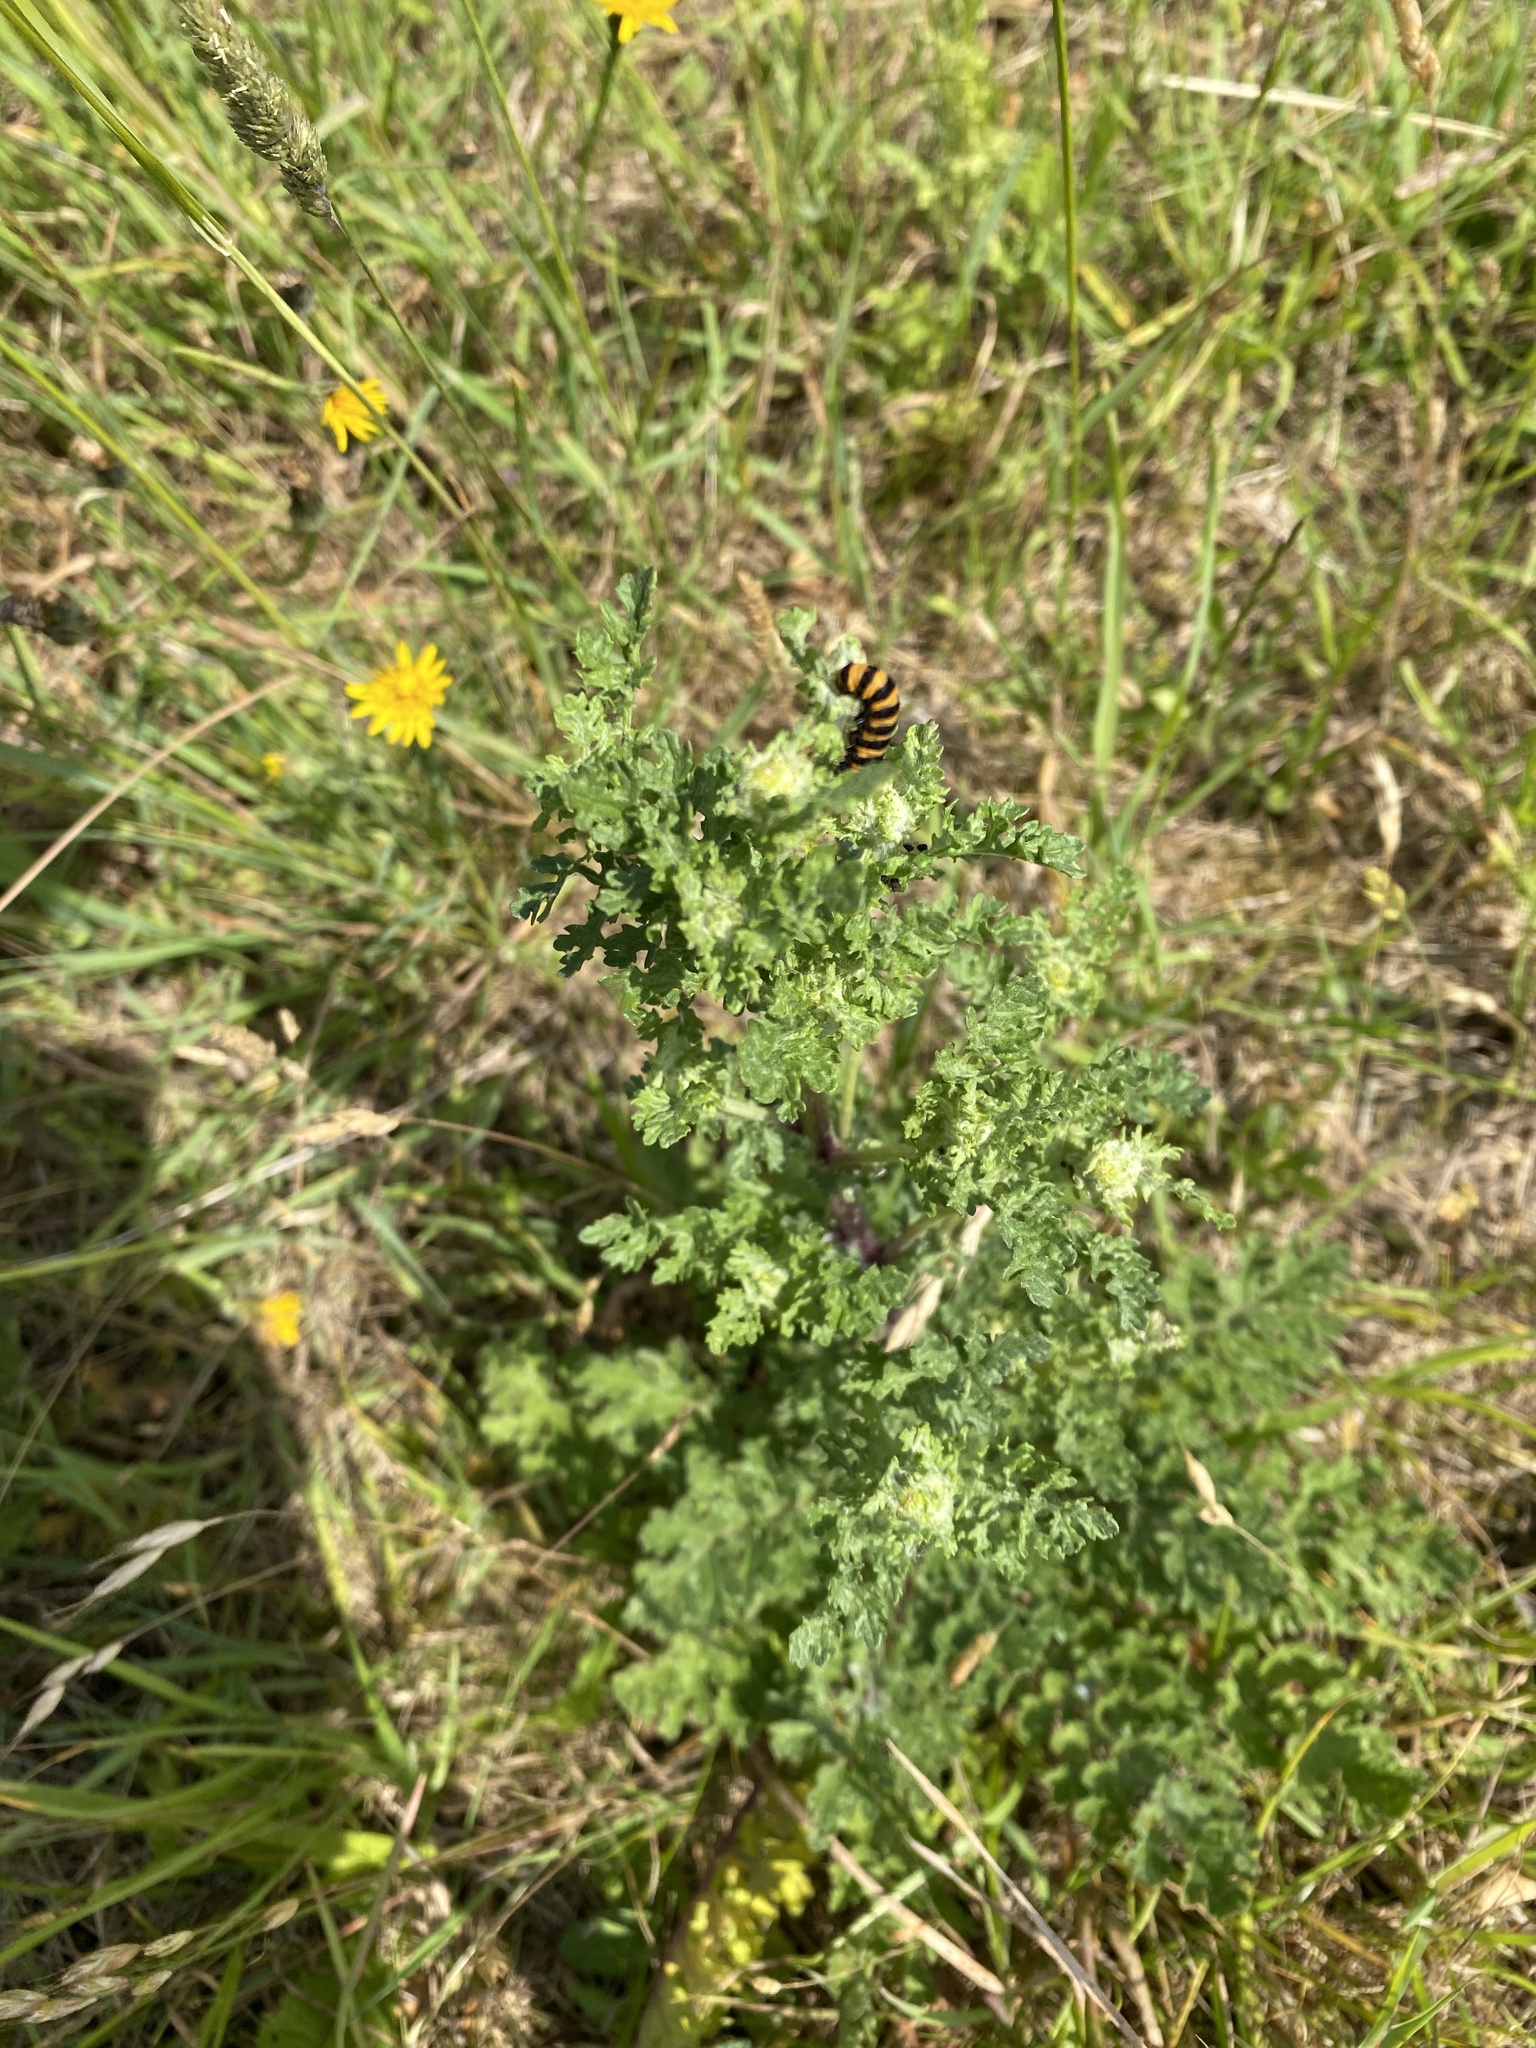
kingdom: Animalia
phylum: Arthropoda
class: Insecta
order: Lepidoptera
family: Erebidae
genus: Tyria
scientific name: Tyria jacobaeae
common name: Cinnabar
